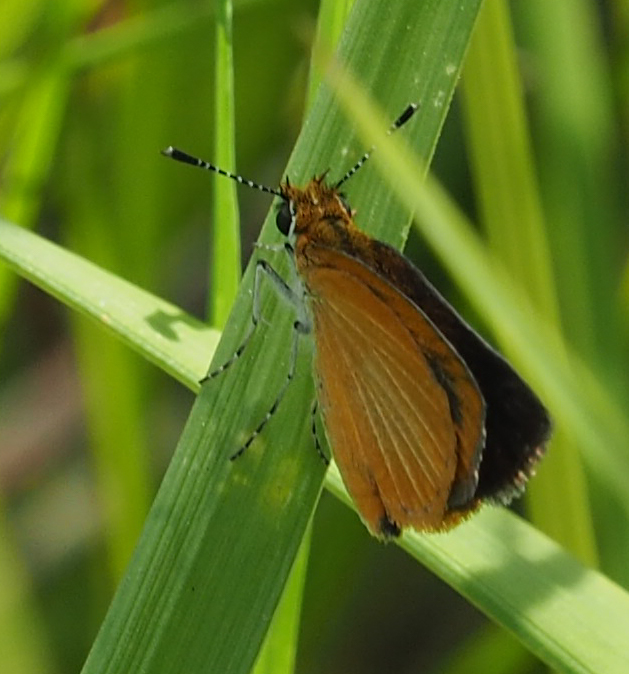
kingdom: Animalia
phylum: Arthropoda
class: Insecta
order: Lepidoptera
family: Hesperiidae
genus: Ancyloxypha
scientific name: Ancyloxypha numitor
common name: Least skipper
